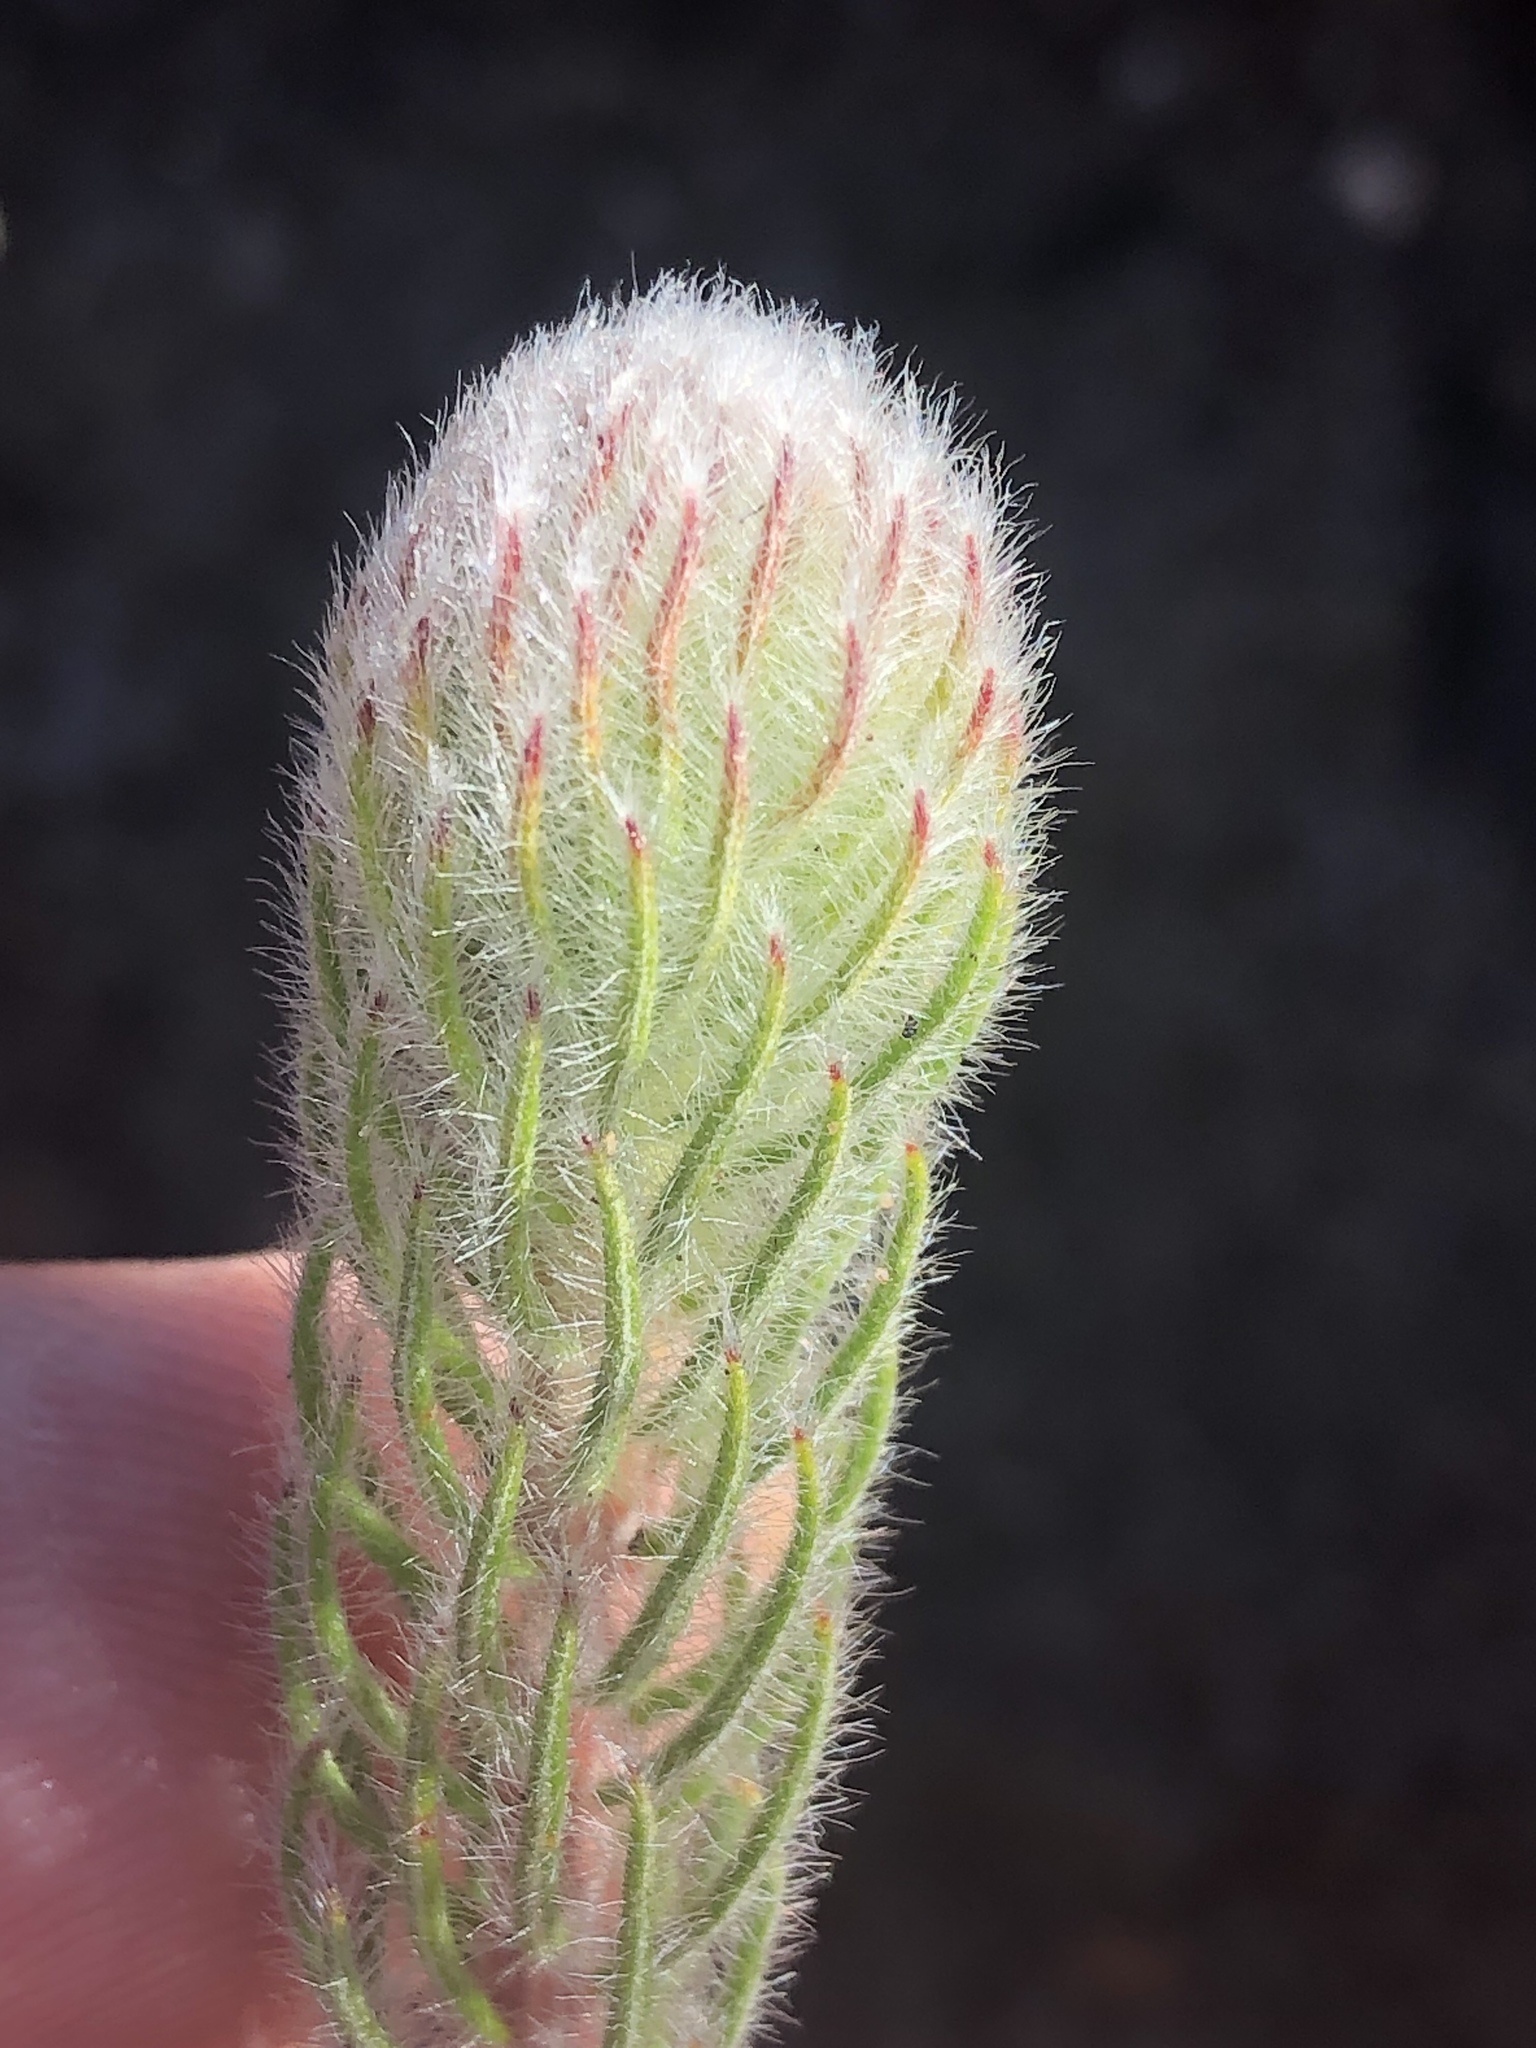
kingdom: Plantae
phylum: Tracheophyta
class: Magnoliopsida
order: Rosales
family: Rhamnaceae
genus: Phylica
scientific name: Phylica meyeri
